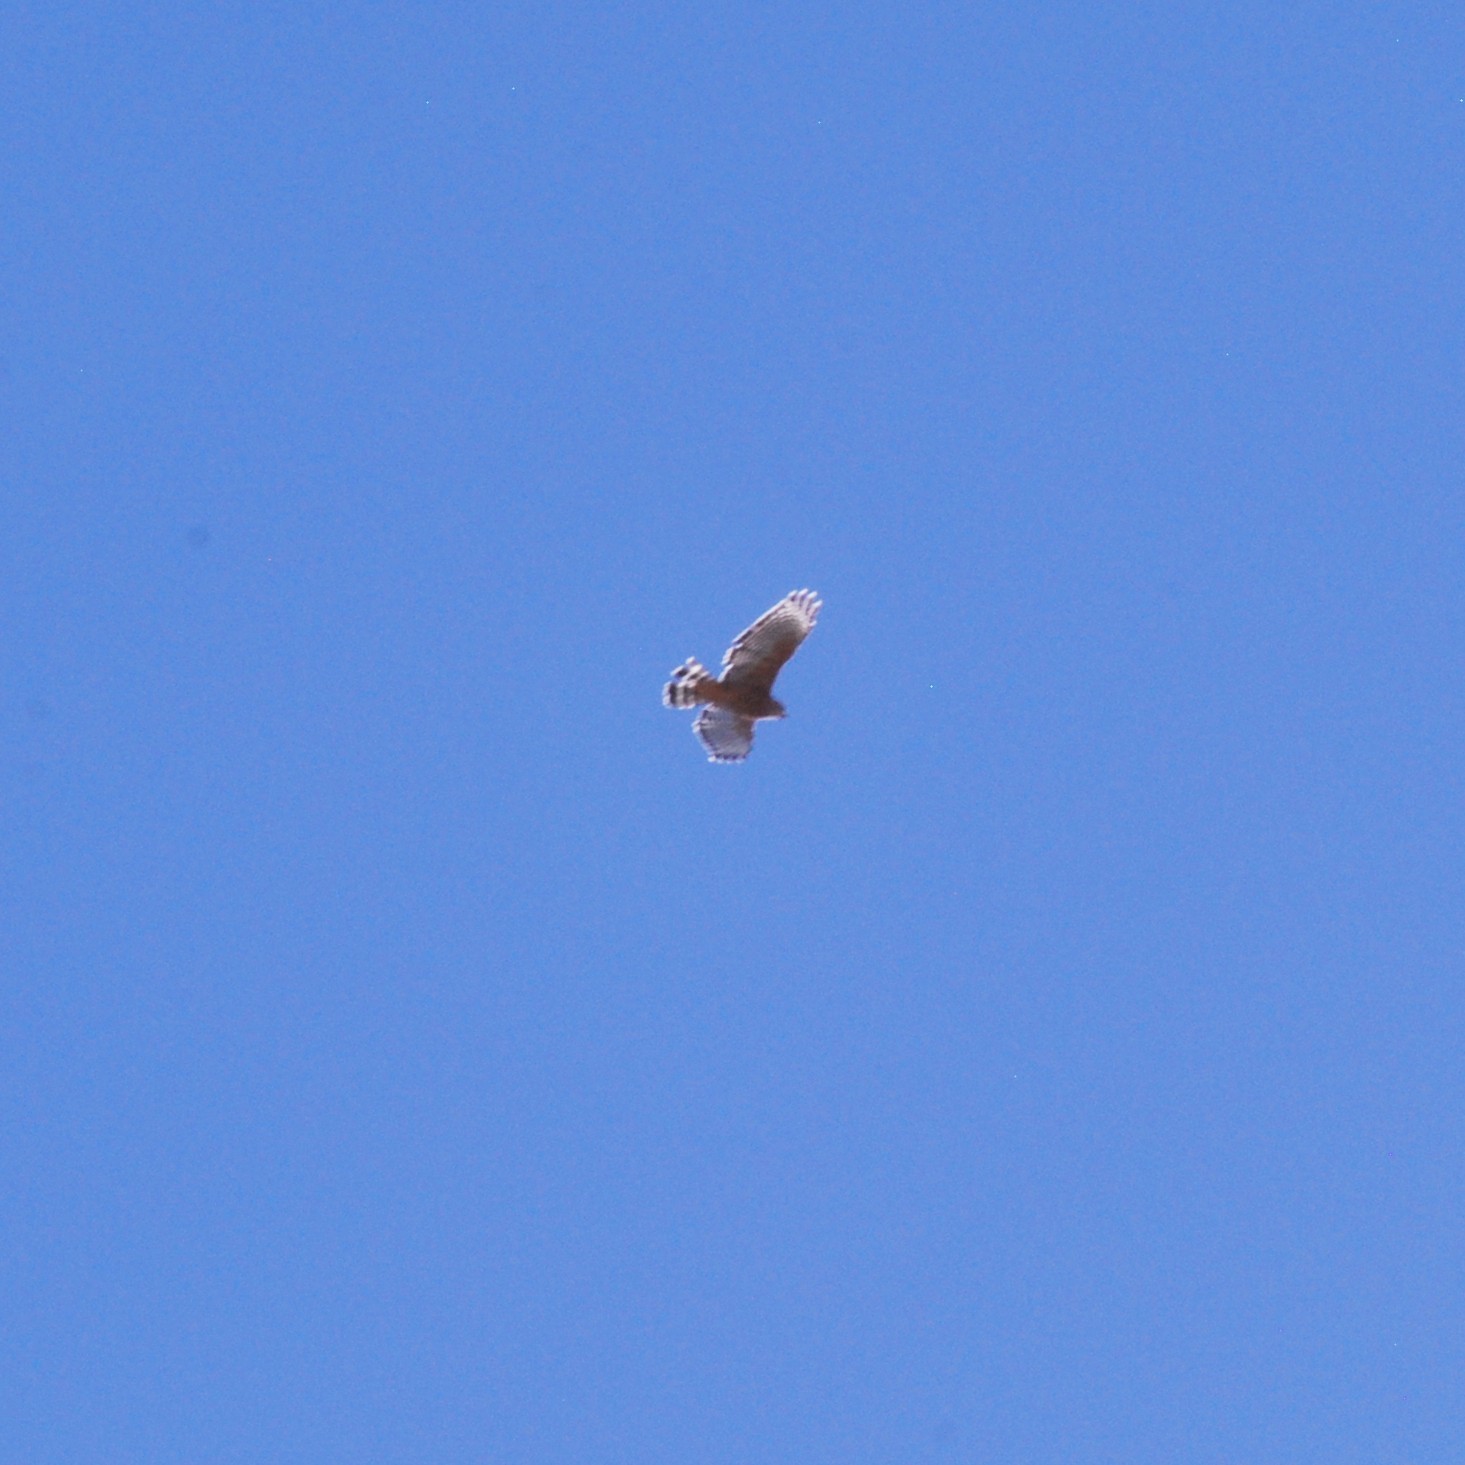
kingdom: Animalia
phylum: Chordata
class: Aves
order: Accipitriformes
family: Accipitridae
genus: Buteo
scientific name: Buteo lineatus
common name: Red-shouldered hawk
